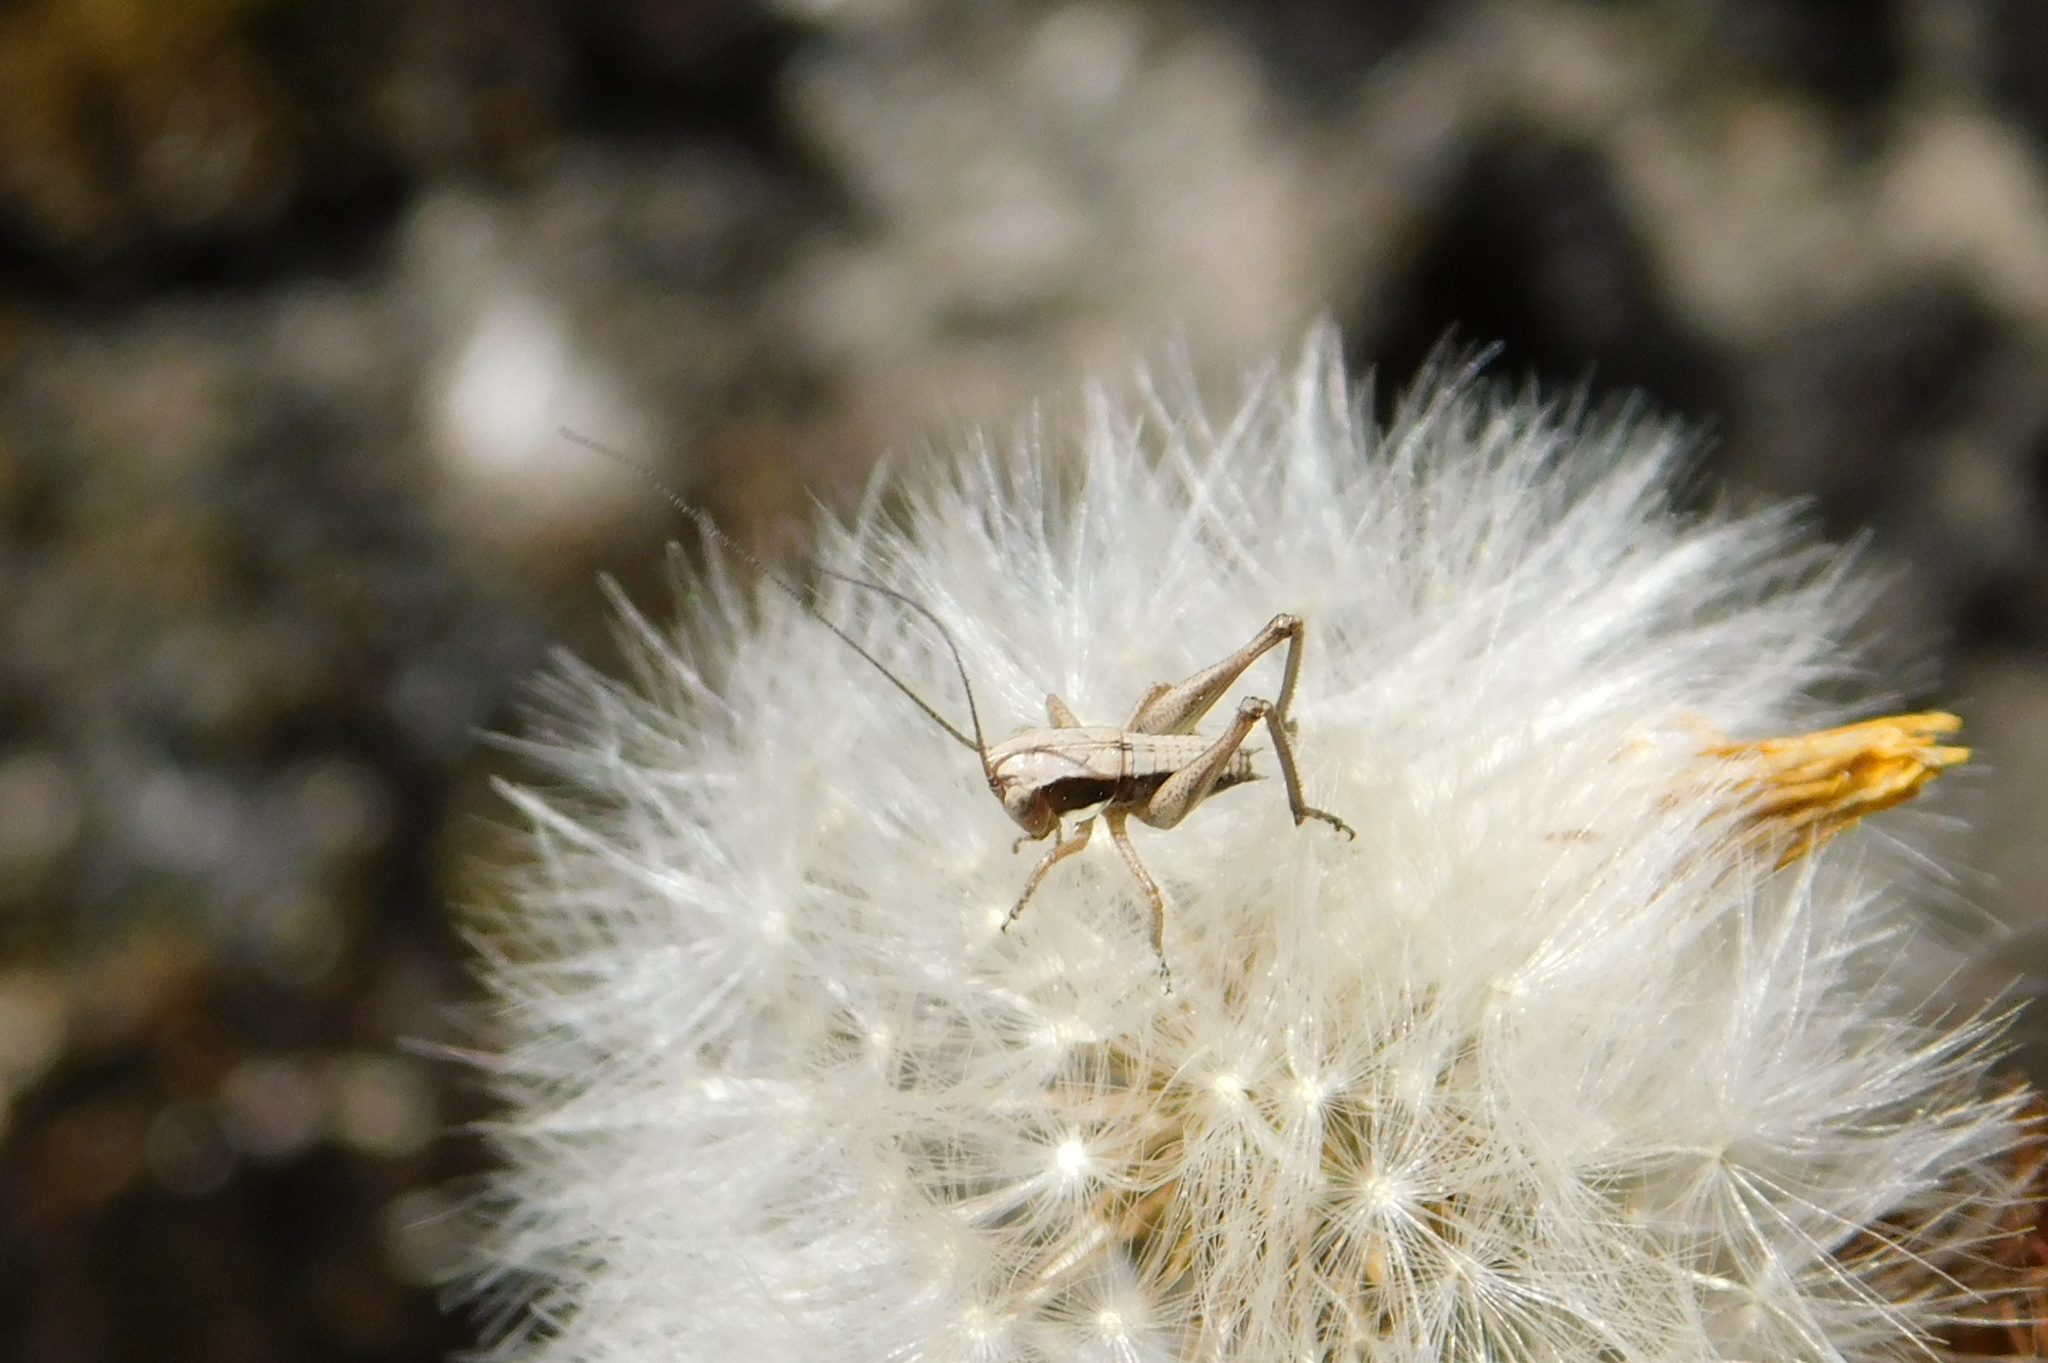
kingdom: Animalia
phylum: Arthropoda
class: Insecta
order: Orthoptera
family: Tettigoniidae
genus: Platycleis
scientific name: Platycleis albopunctata
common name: Grey bush-cricket
